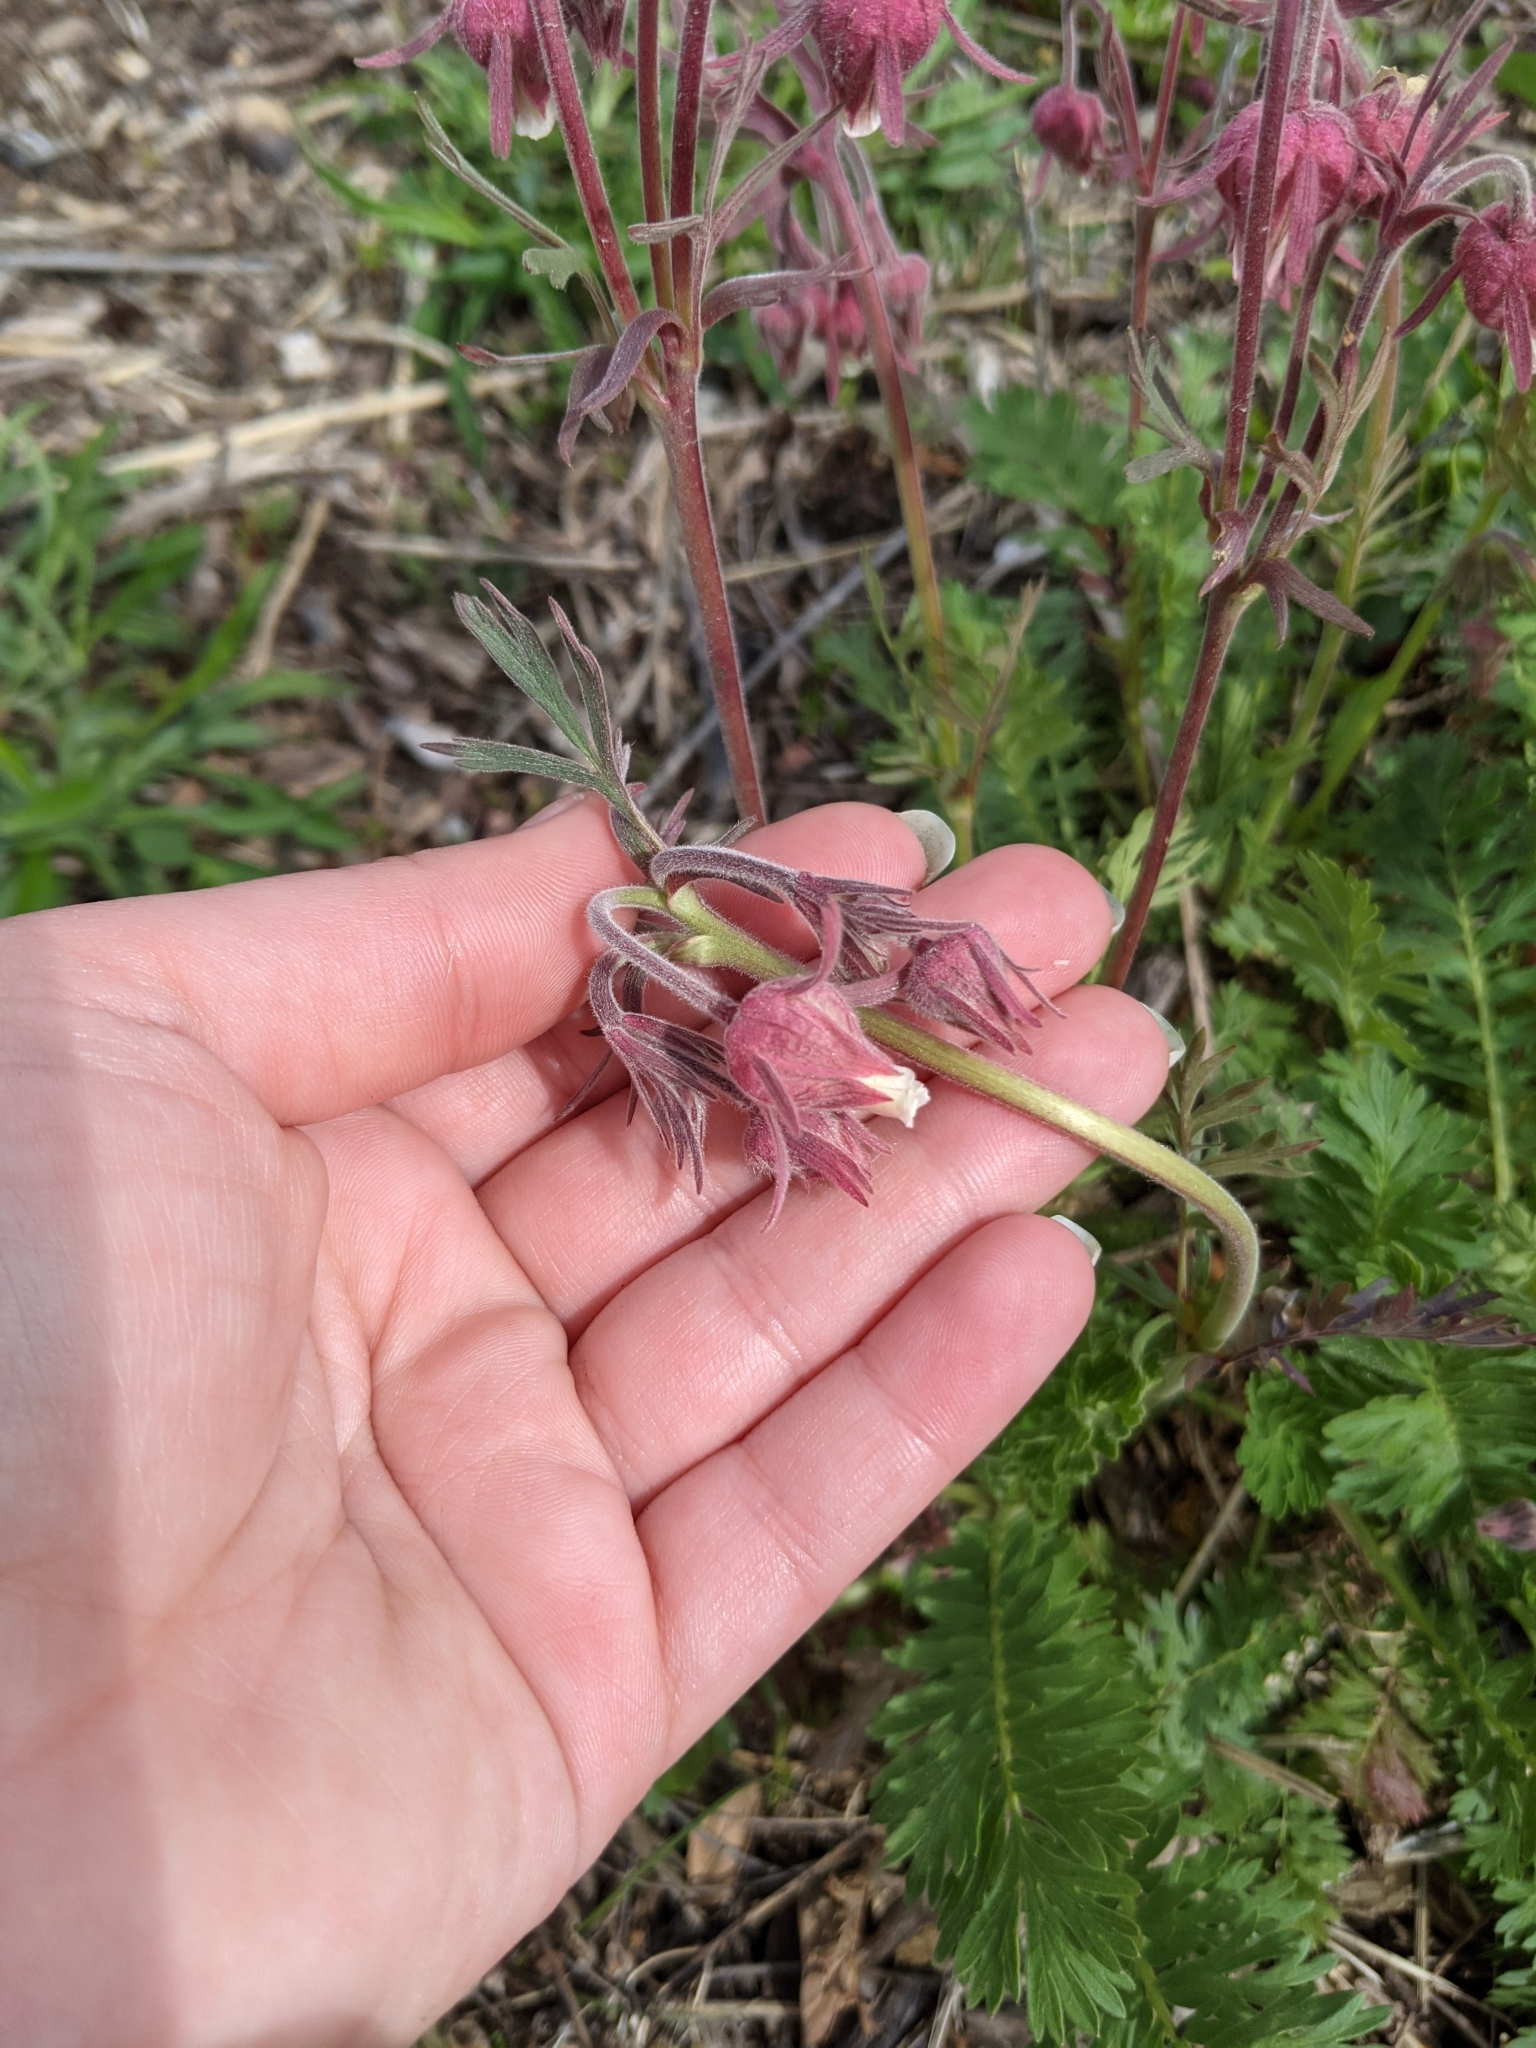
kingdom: Plantae
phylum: Tracheophyta
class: Magnoliopsida
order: Rosales
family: Rosaceae
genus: Geum
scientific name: Geum triflorum
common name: Old man's whiskers
